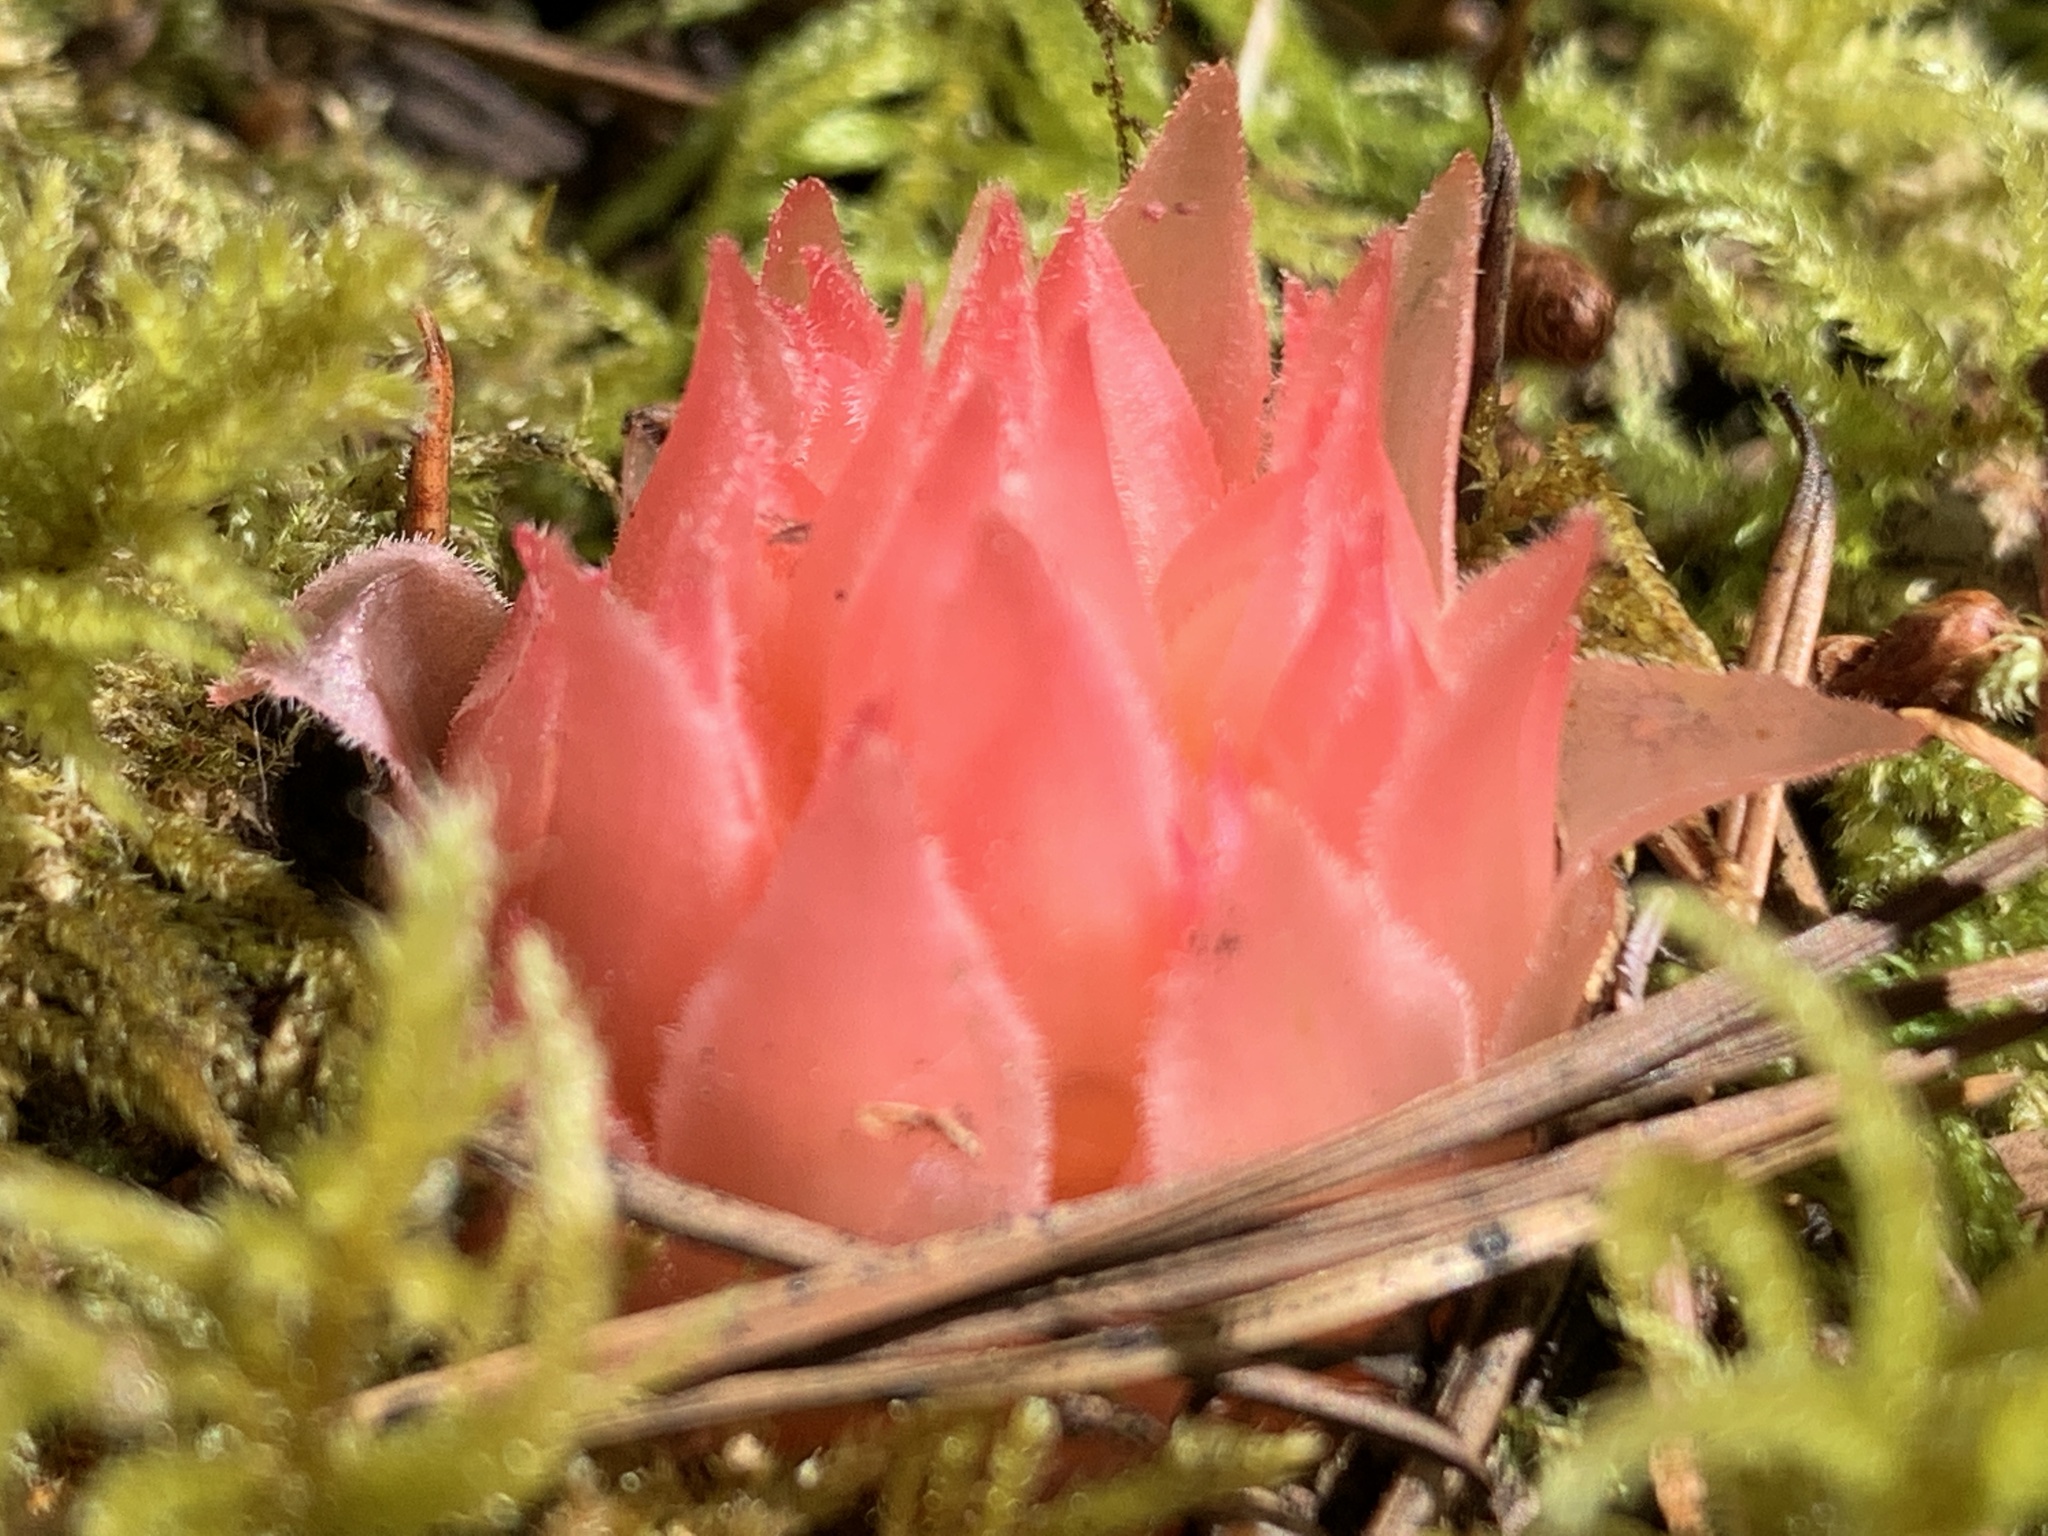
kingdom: Plantae
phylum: Tracheophyta
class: Magnoliopsida
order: Ericales
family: Ericaceae
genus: Hemitomes
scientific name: Hemitomes congestum
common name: Cone plant
